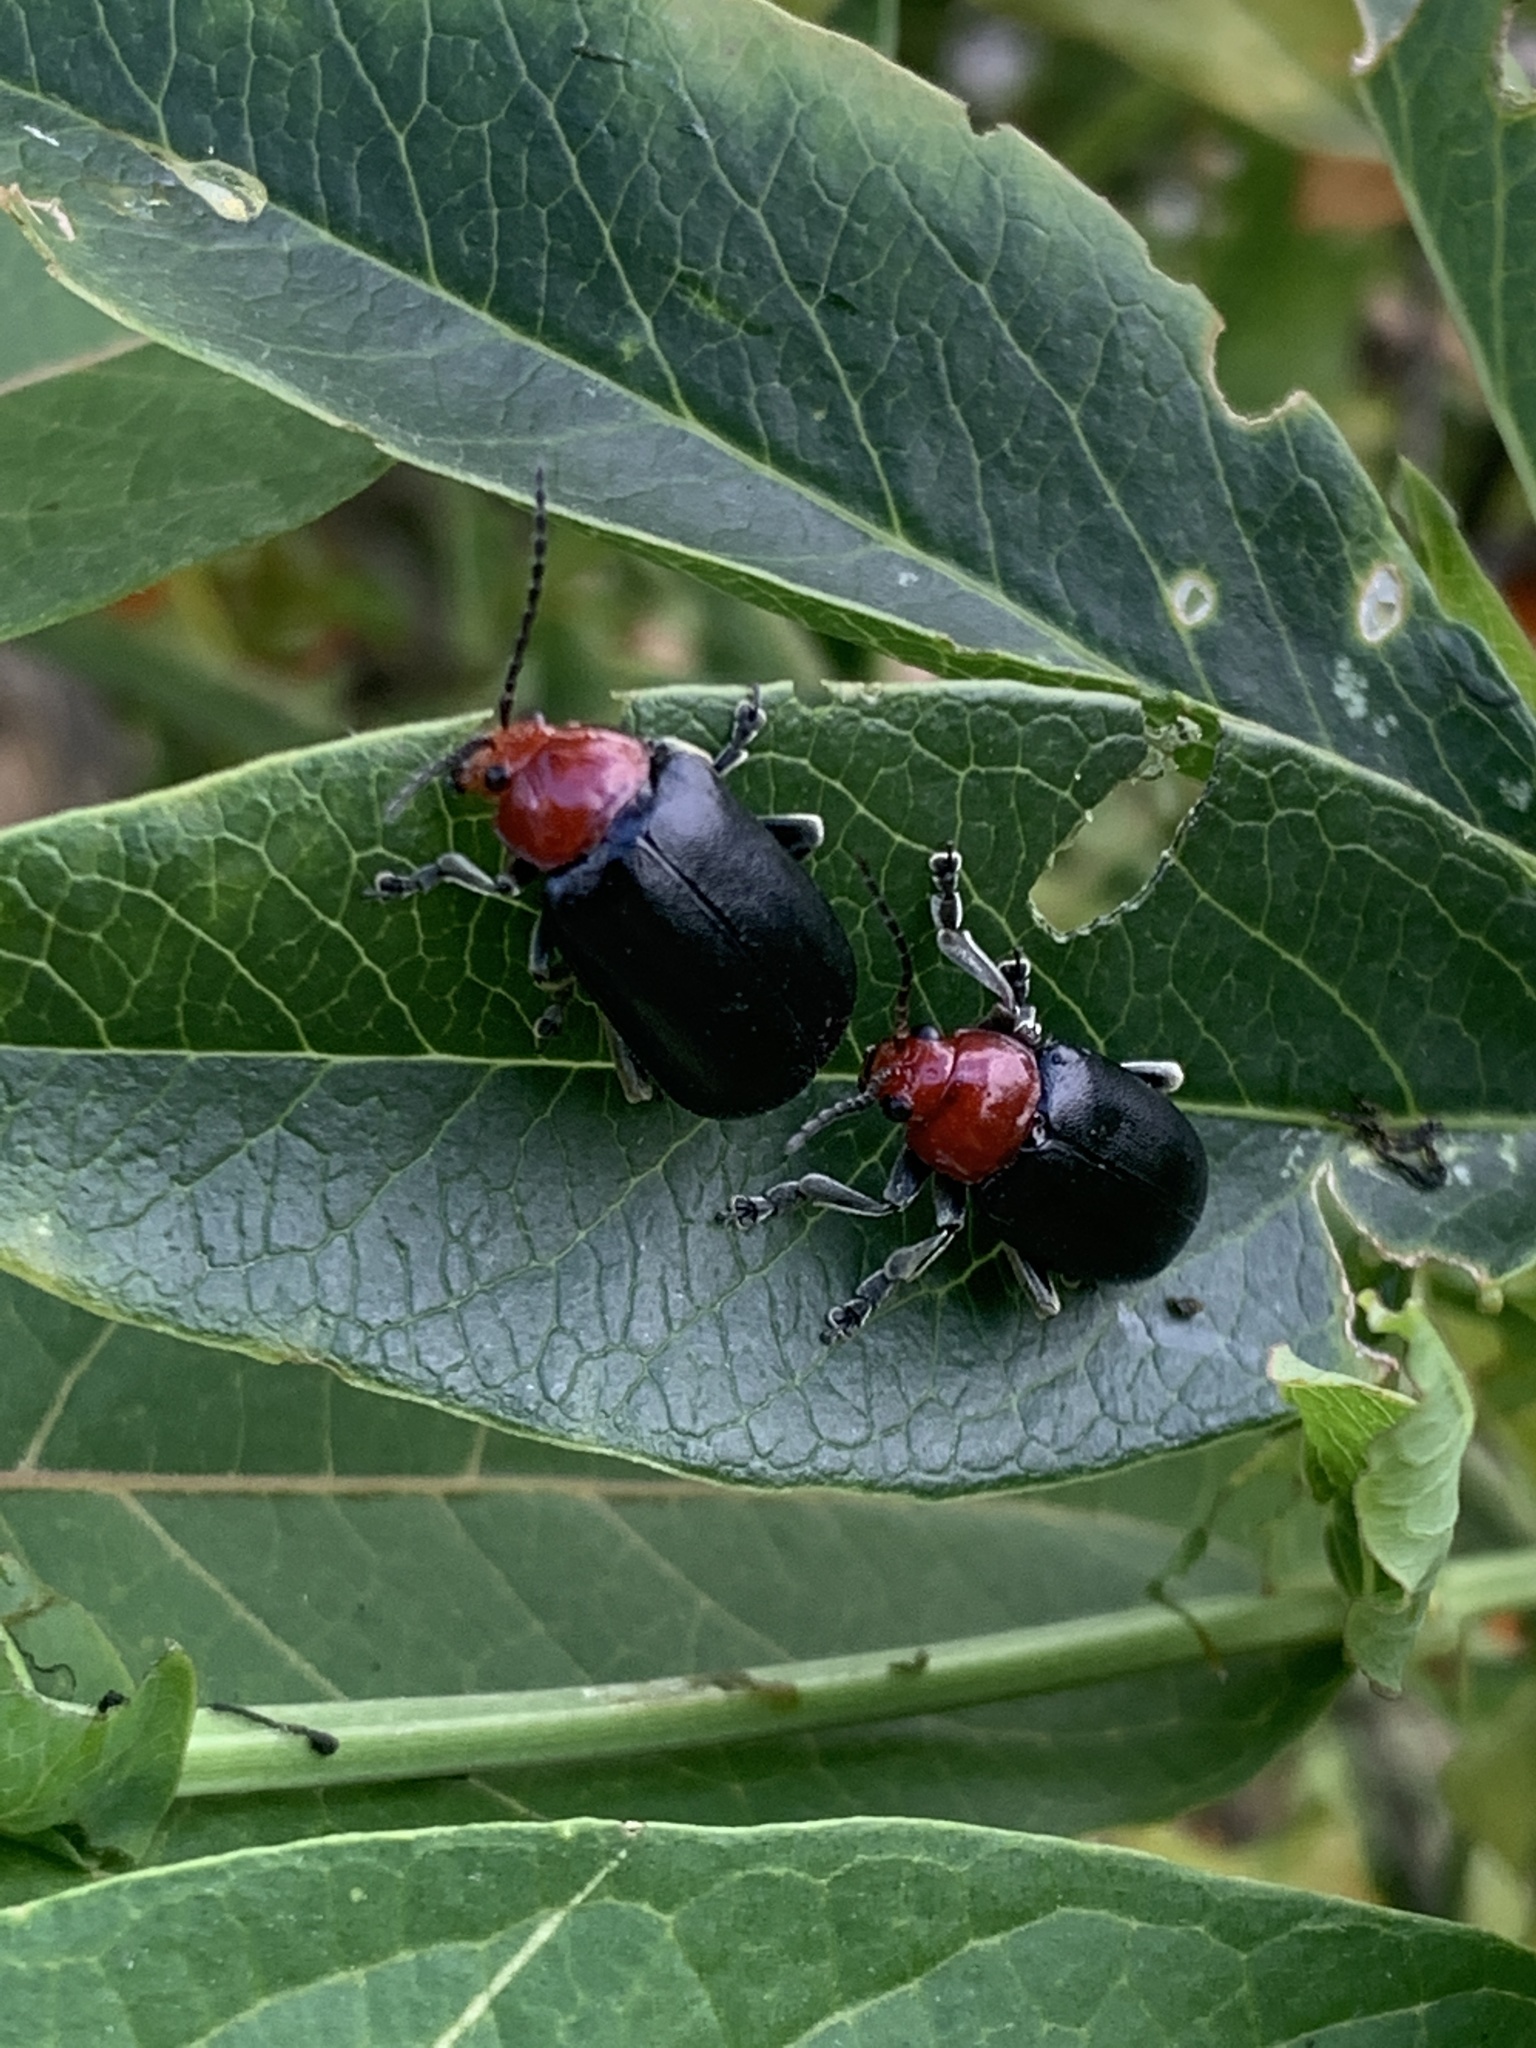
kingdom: Animalia
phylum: Arthropoda
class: Insecta
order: Coleoptera
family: Chrysomelidae
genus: Cacoscelis
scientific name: Cacoscelis
